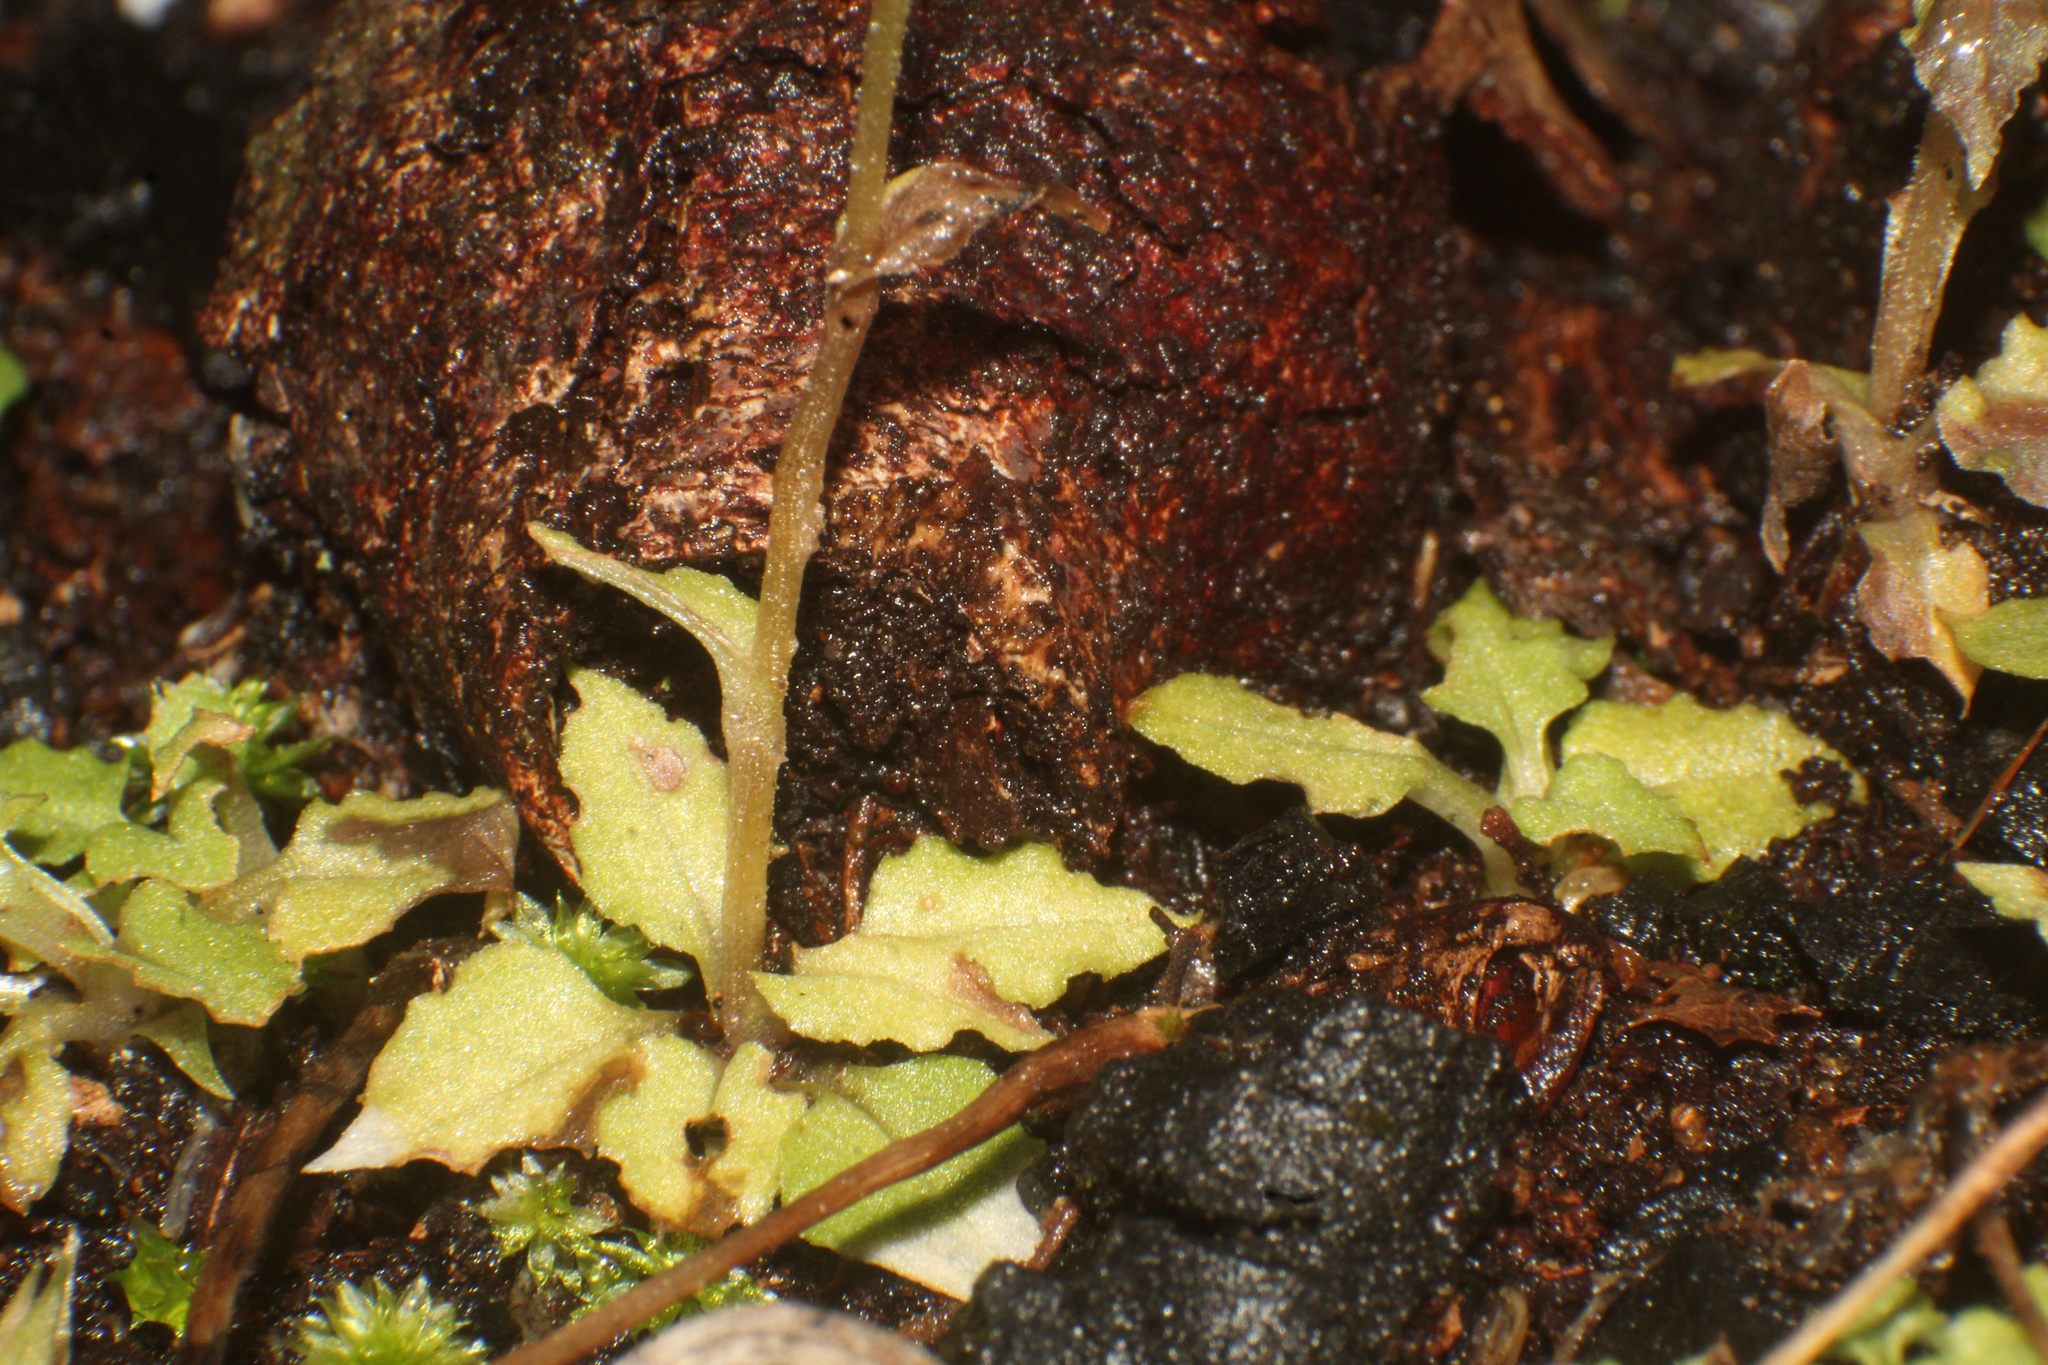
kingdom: Plantae
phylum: Tracheophyta
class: Liliopsida
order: Asparagales
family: Orchidaceae
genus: Pterostylis
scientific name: Pterostylis karri
